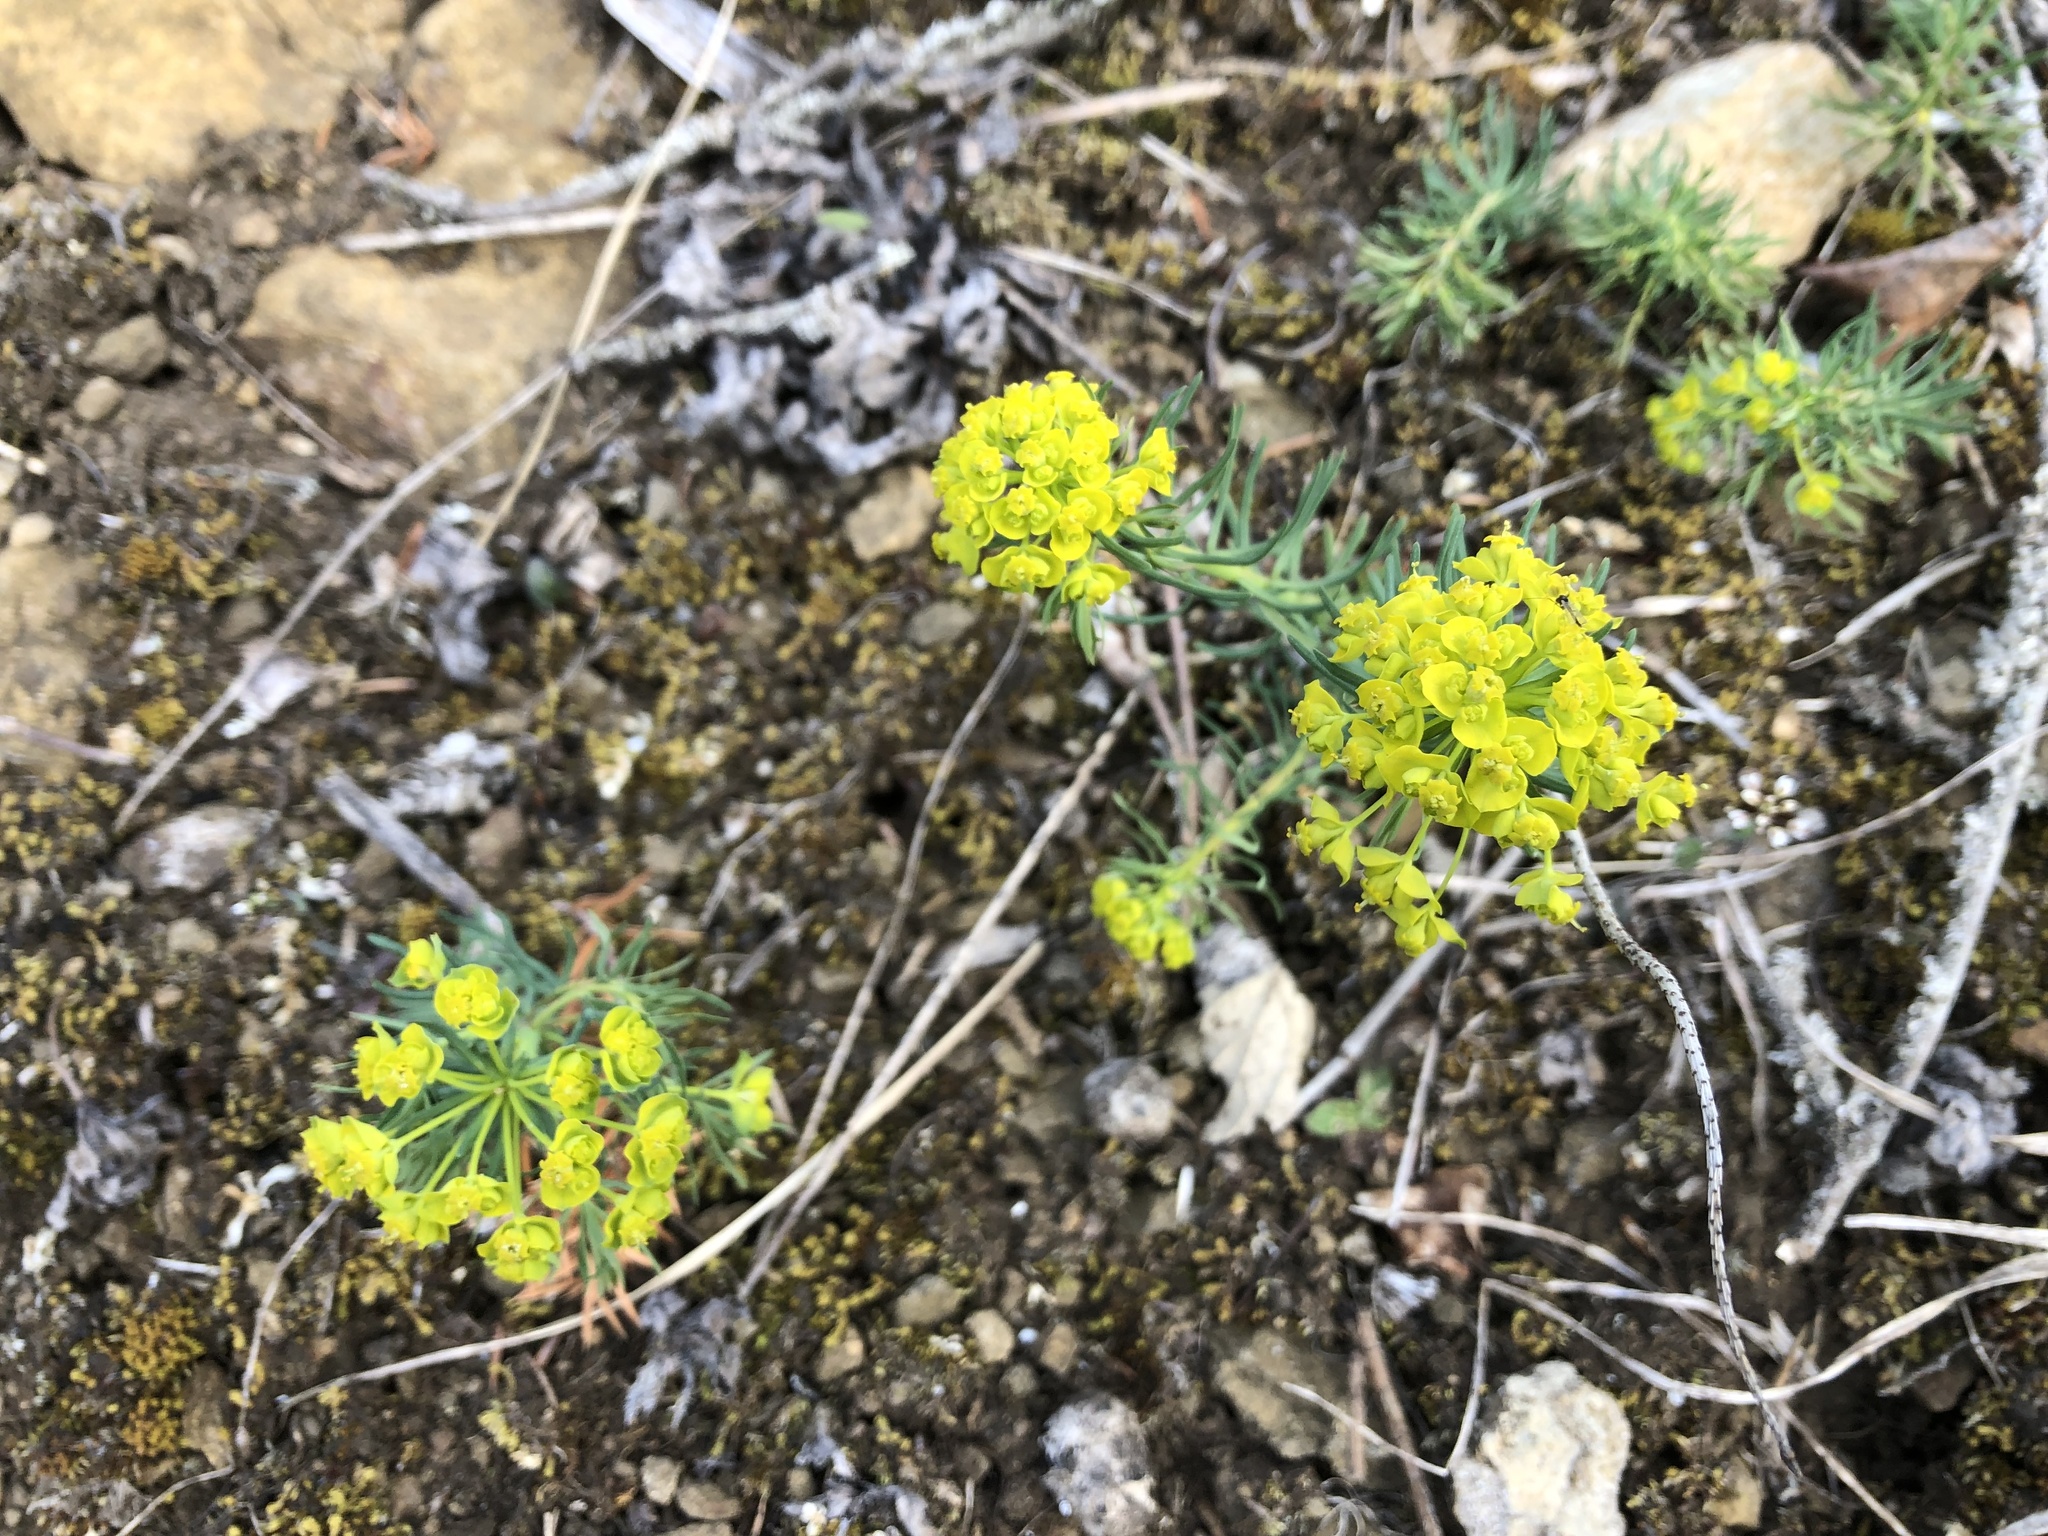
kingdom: Plantae
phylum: Tracheophyta
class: Magnoliopsida
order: Malpighiales
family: Euphorbiaceae
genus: Euphorbia
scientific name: Euphorbia cyparissias
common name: Cypress spurge
